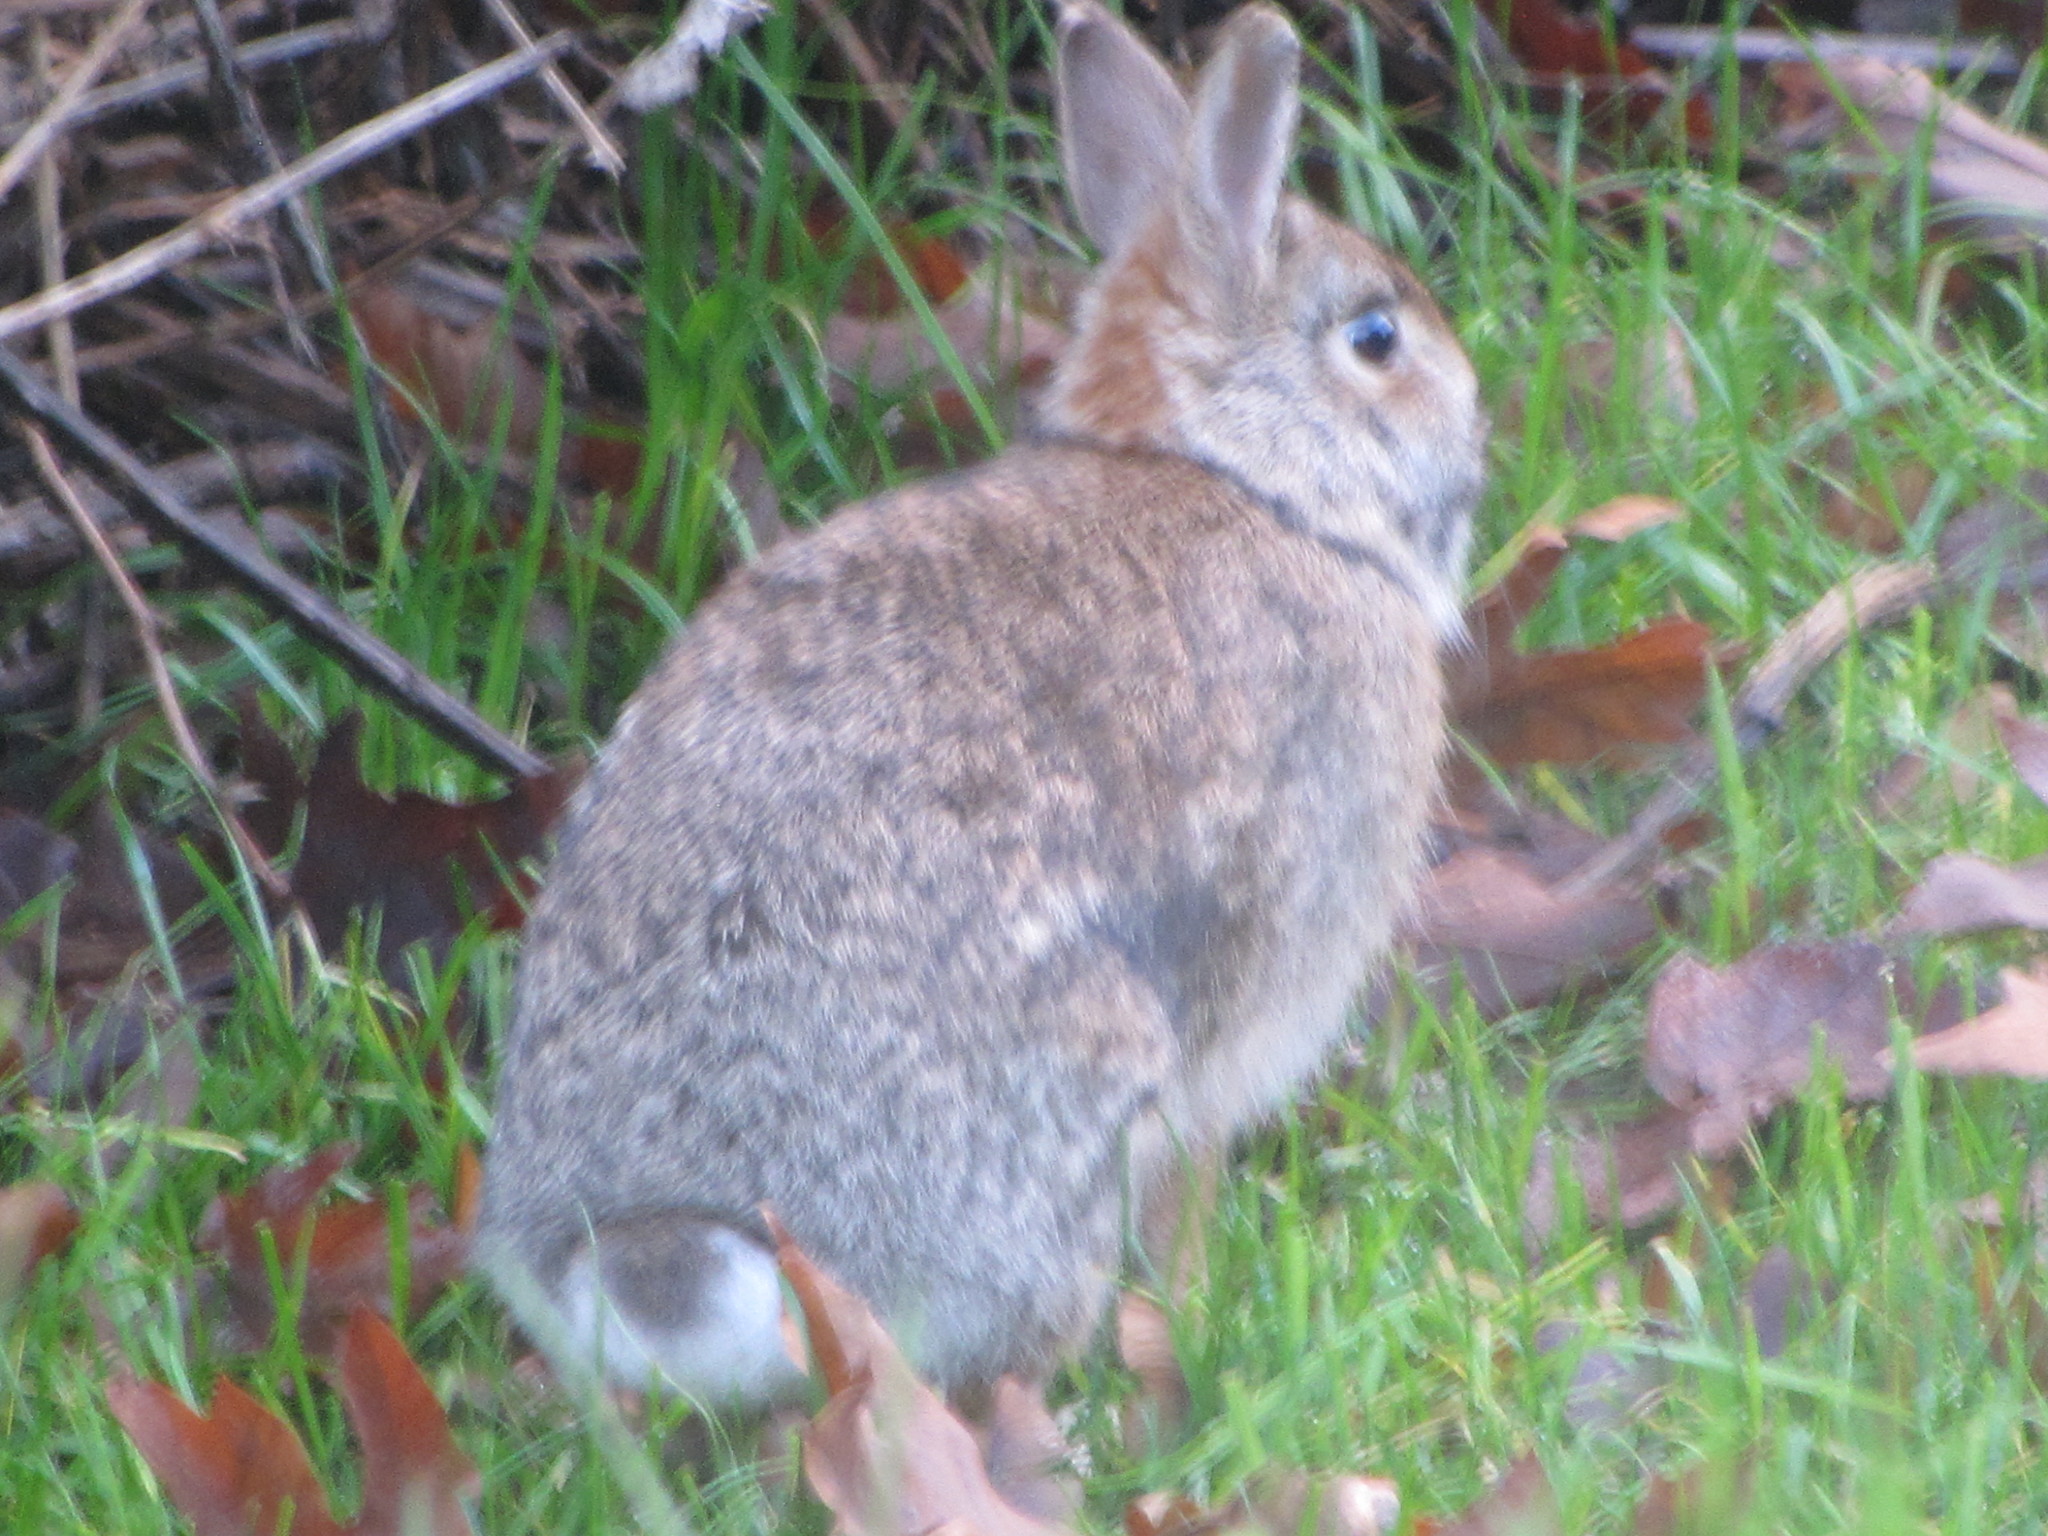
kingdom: Animalia
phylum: Chordata
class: Mammalia
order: Lagomorpha
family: Leporidae
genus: Sylvilagus
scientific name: Sylvilagus floridanus
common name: Eastern cottontail
